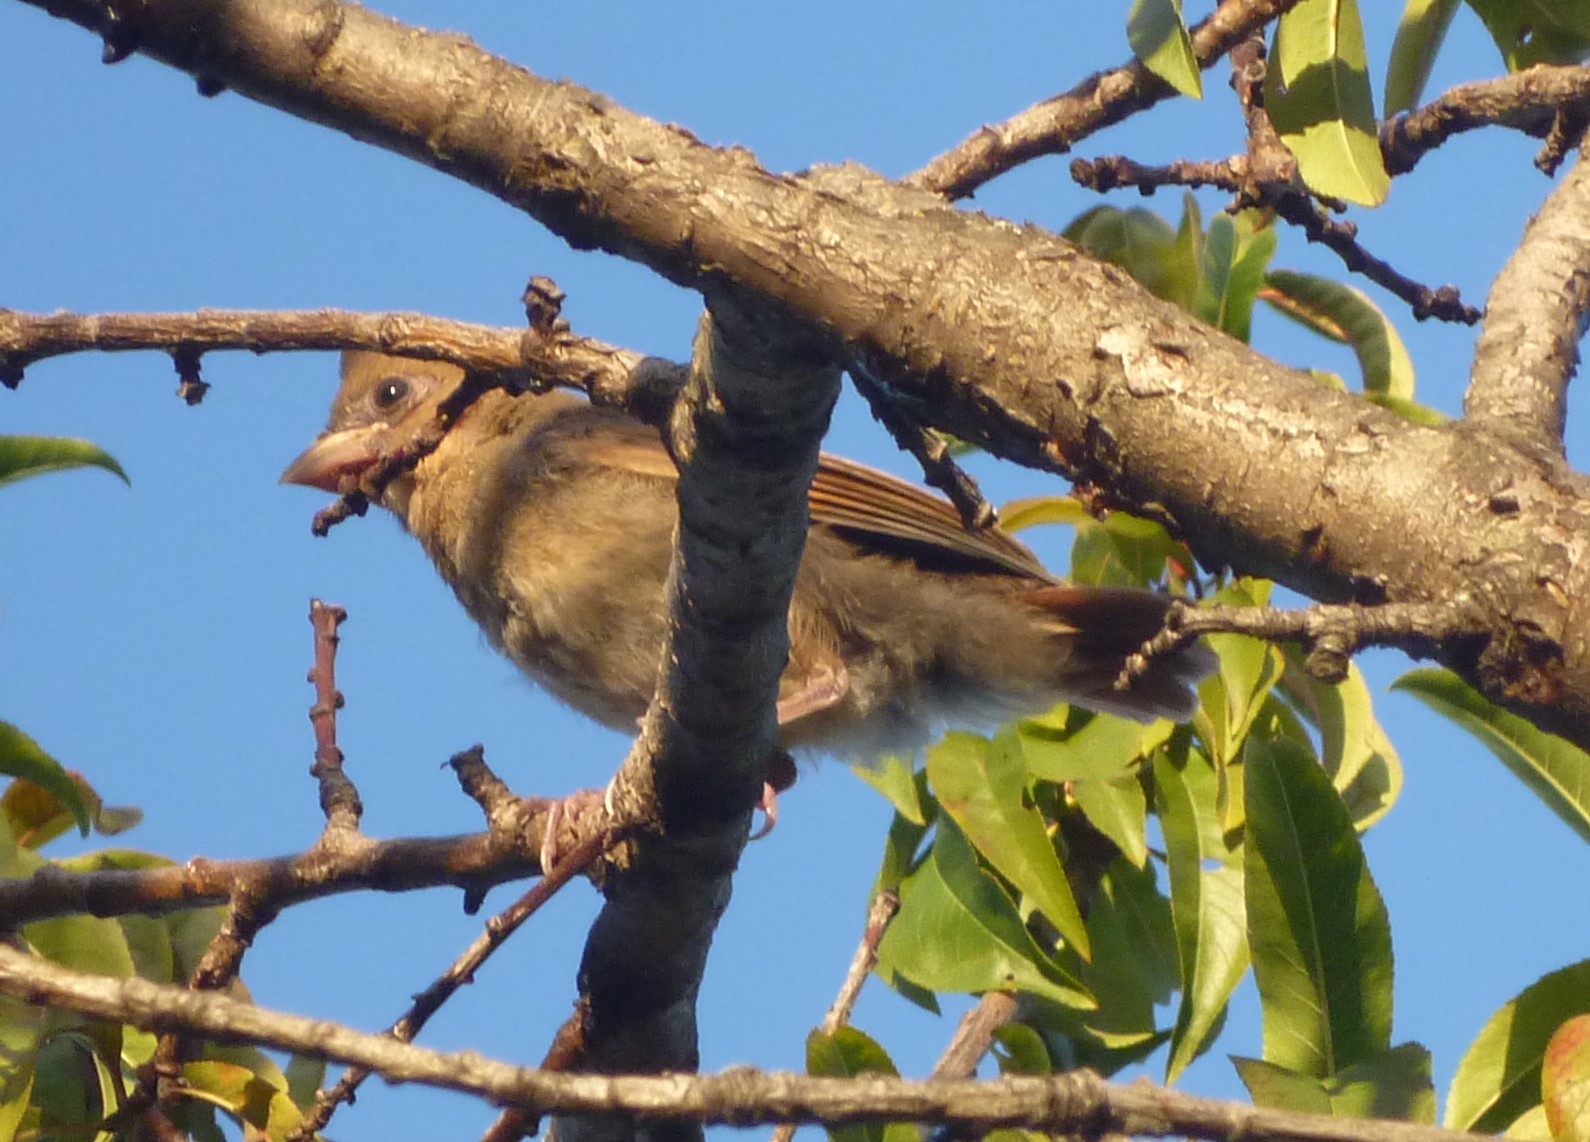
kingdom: Animalia
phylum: Chordata
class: Aves
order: Passeriformes
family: Cardinalidae
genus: Cardinalis
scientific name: Cardinalis cardinalis
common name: Northern cardinal
